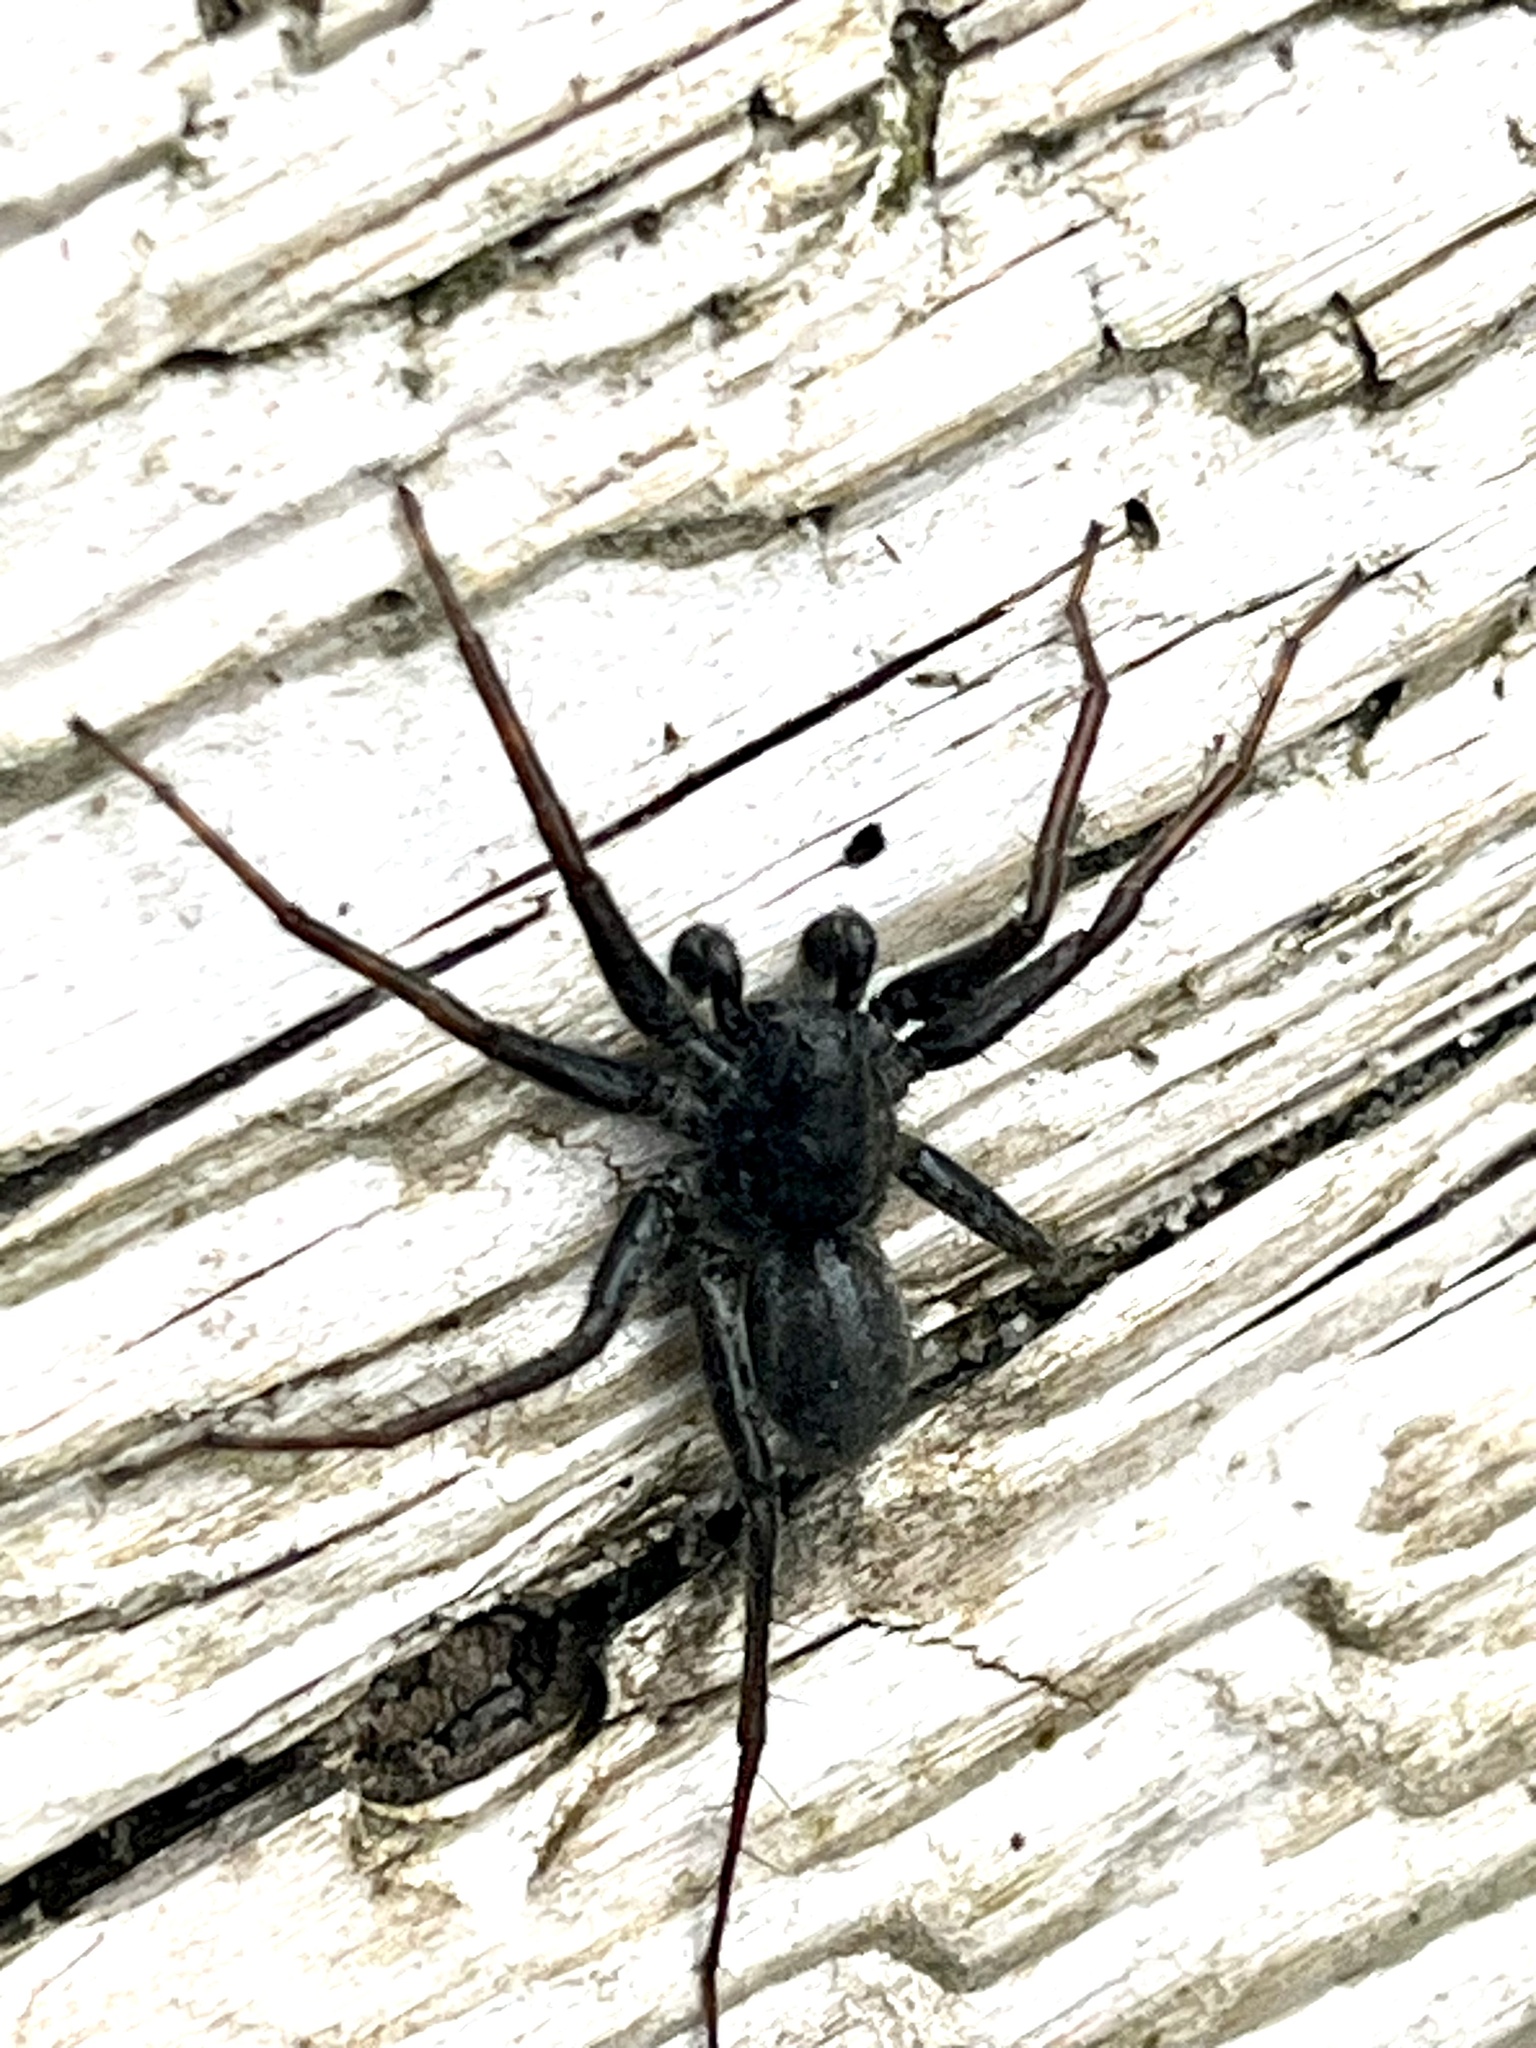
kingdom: Animalia
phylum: Arthropoda
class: Arachnida
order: Araneae
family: Lycosidae
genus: Pardosa
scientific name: Pardosa vancouveri
